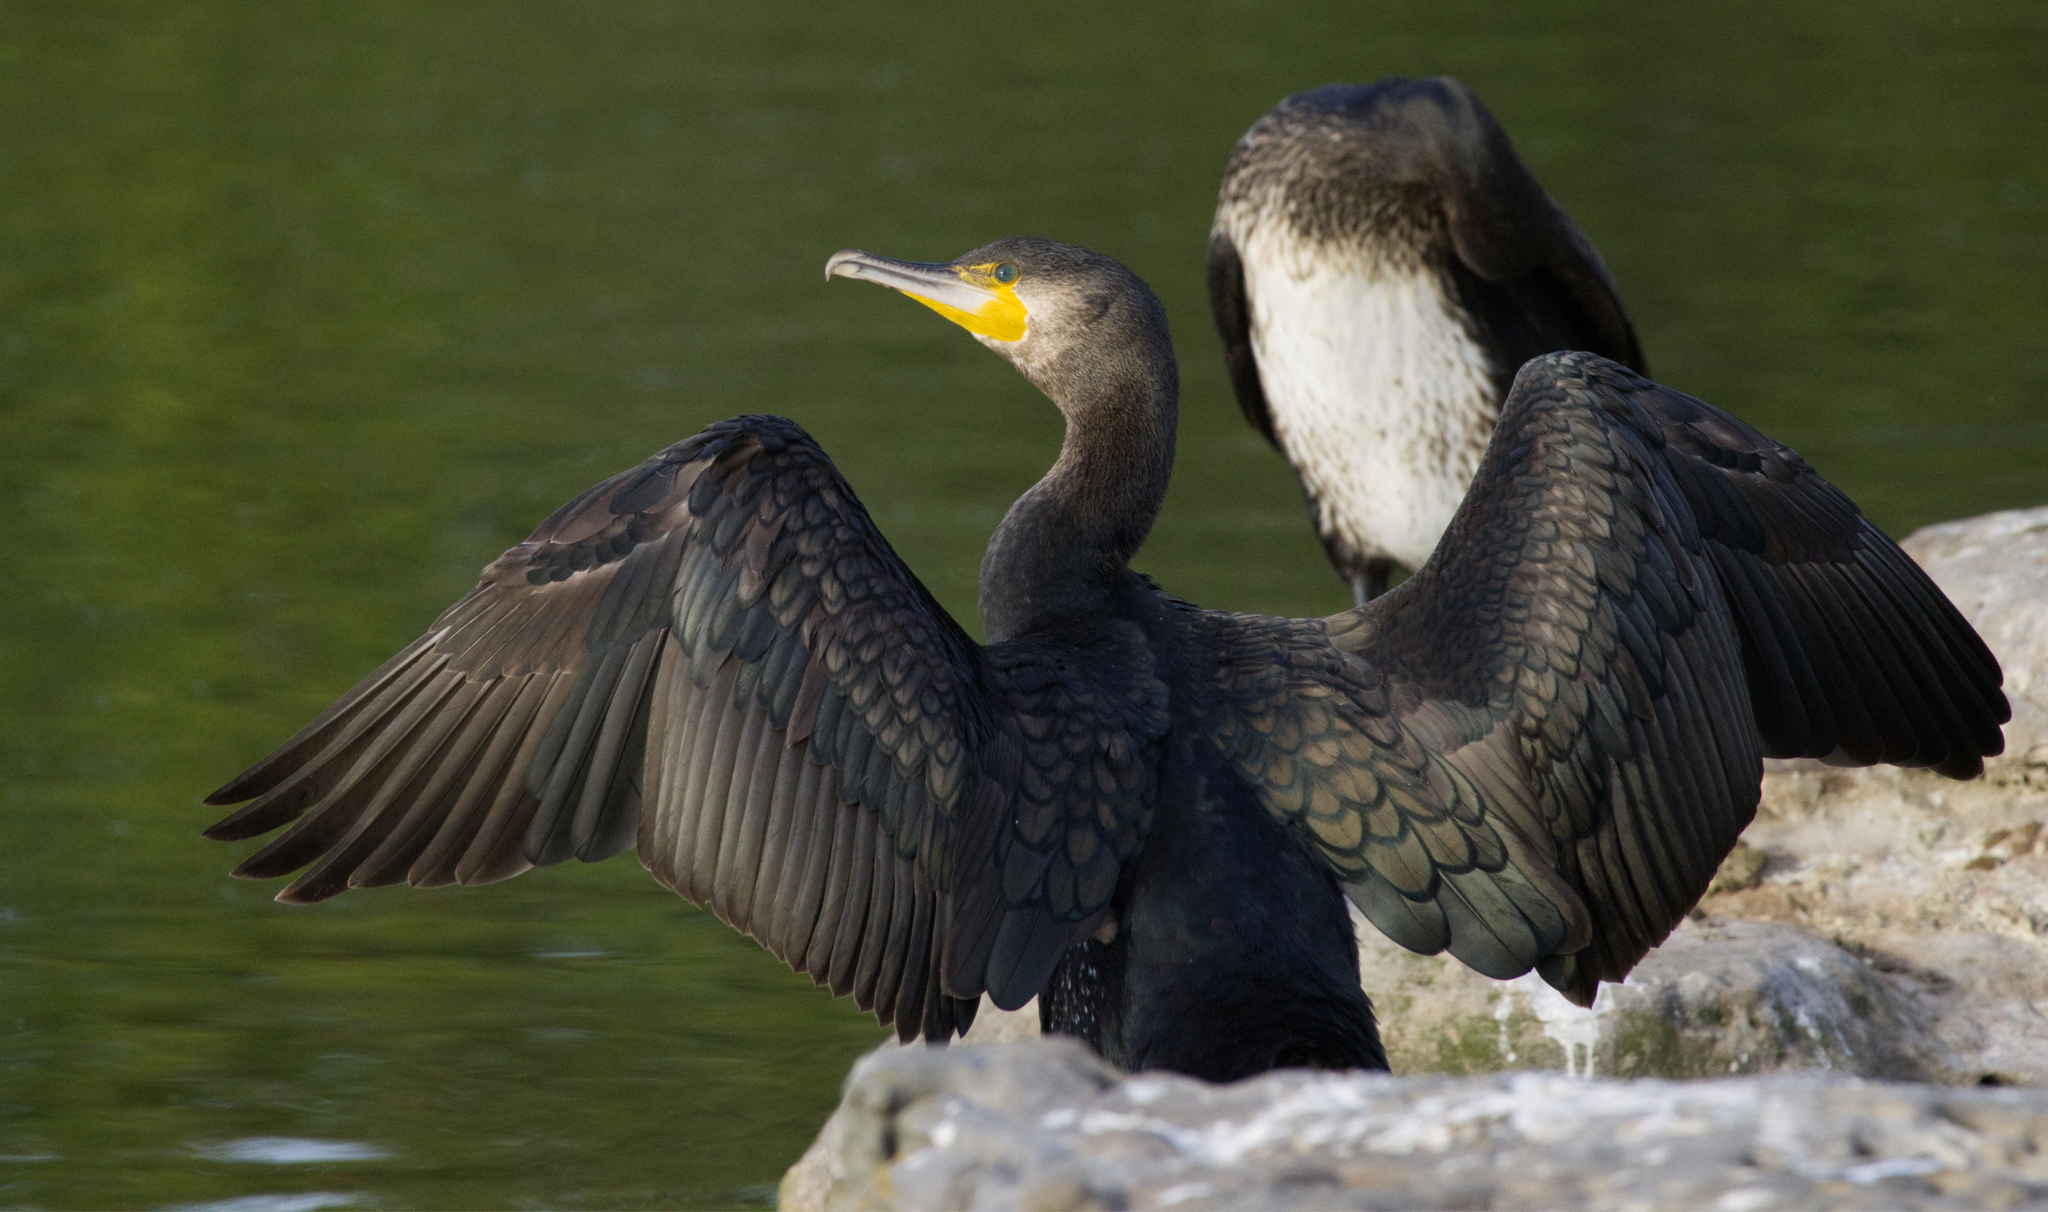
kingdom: Animalia
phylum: Chordata
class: Aves
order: Suliformes
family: Phalacrocoracidae
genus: Phalacrocorax
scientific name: Phalacrocorax carbo
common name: Great cormorant
